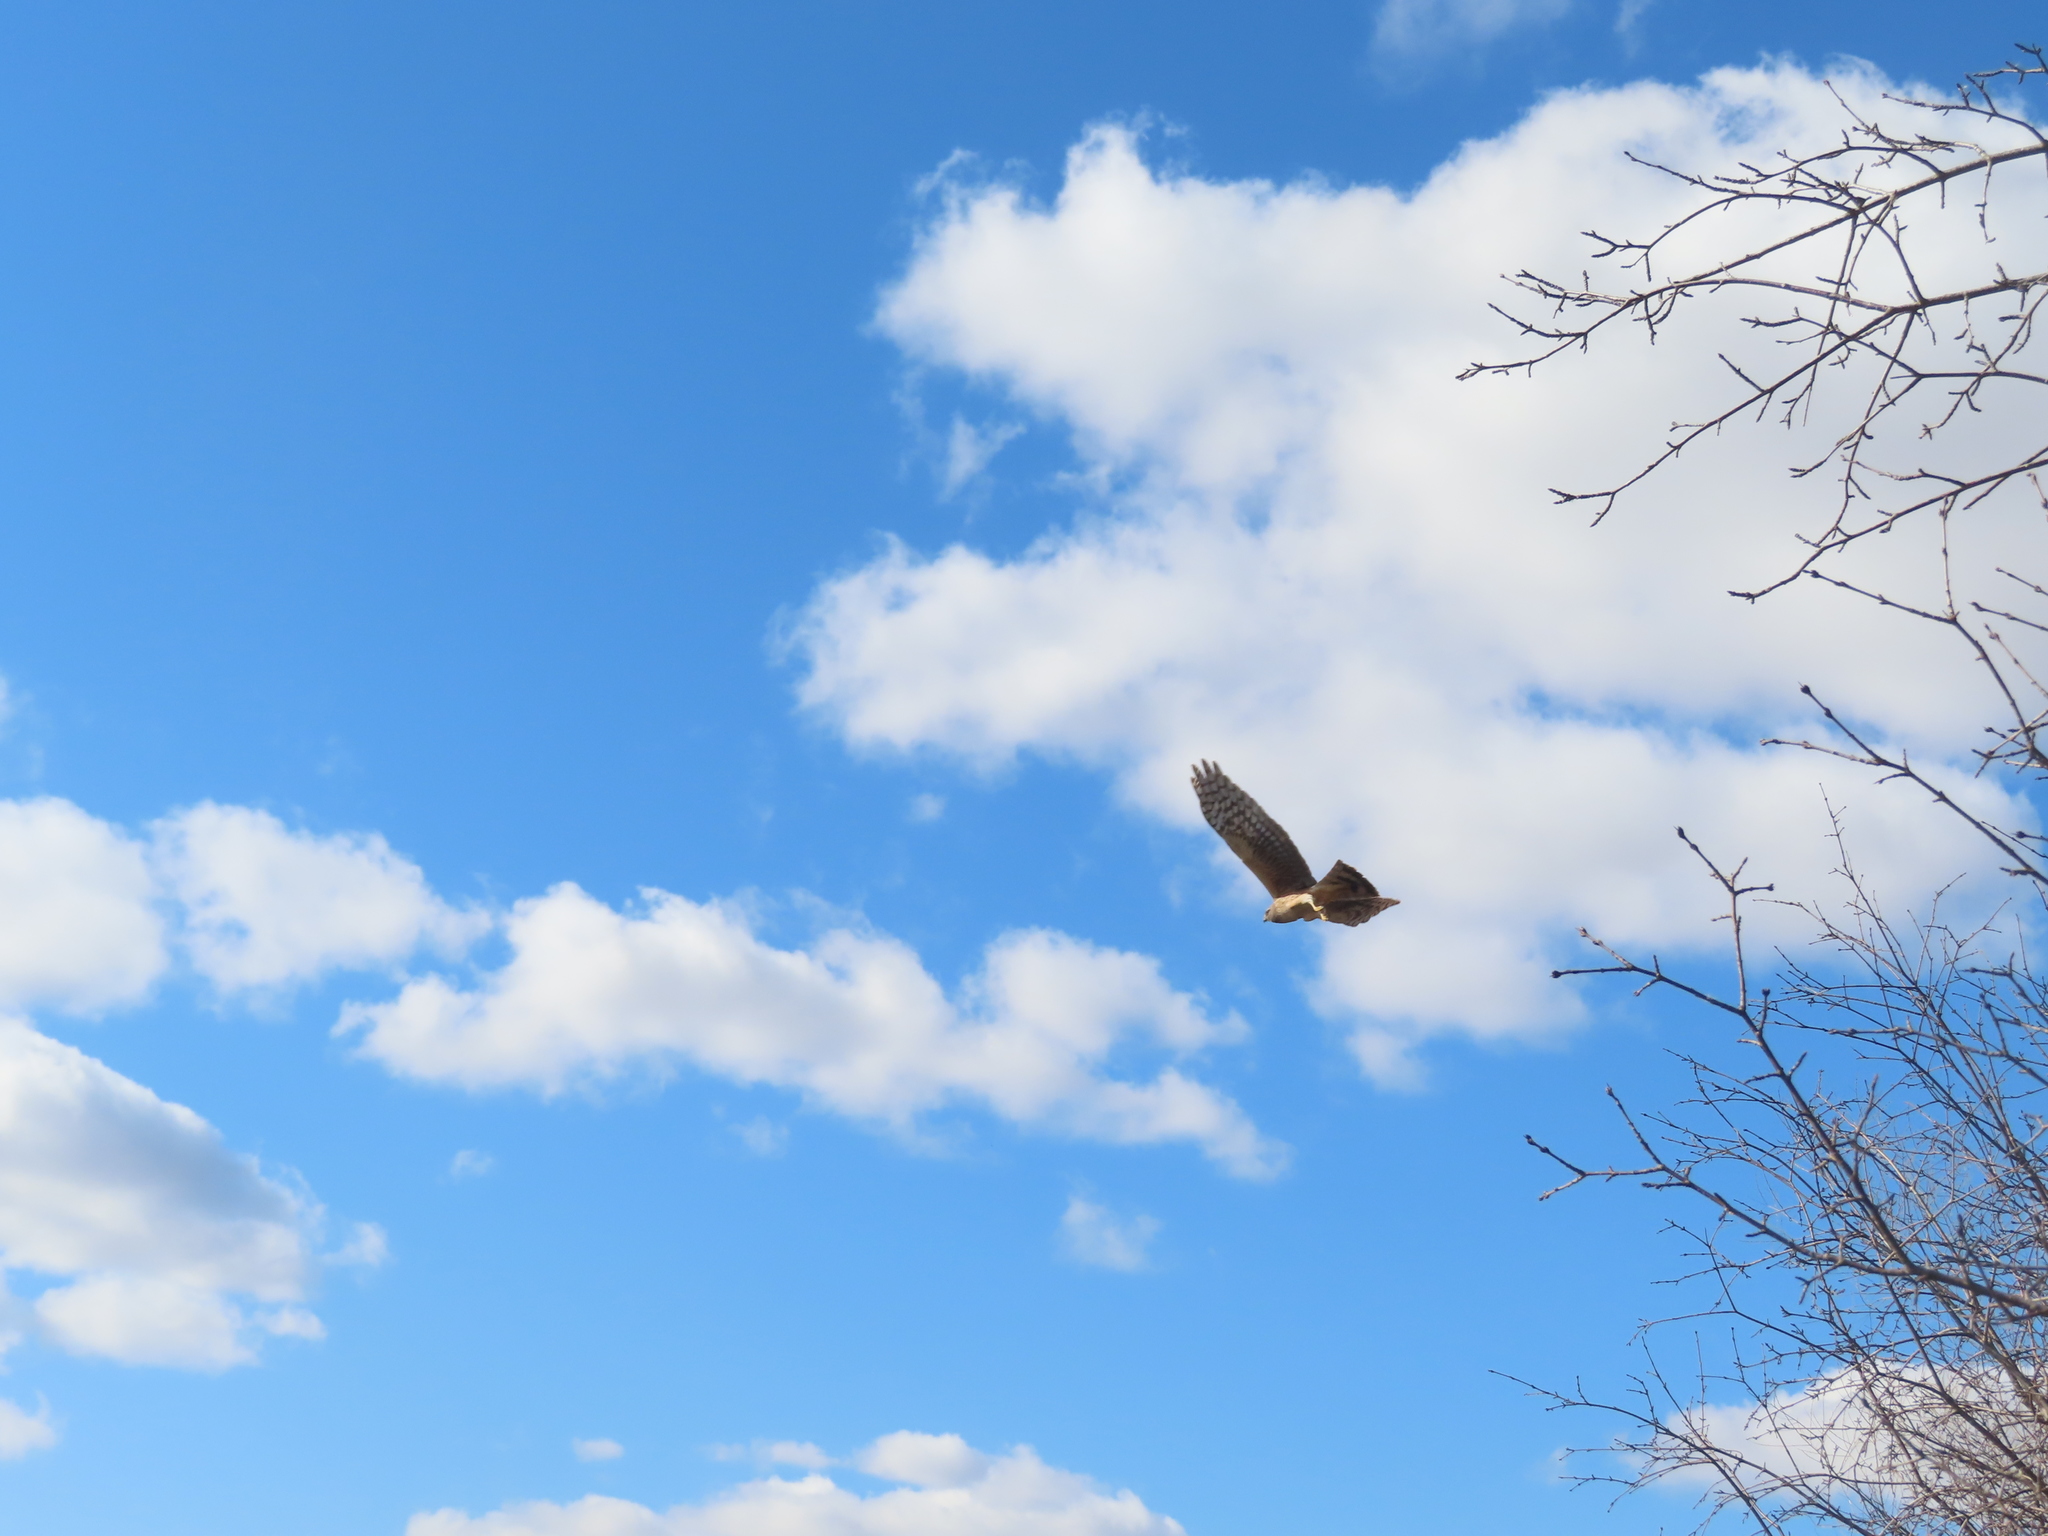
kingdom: Animalia
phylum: Chordata
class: Aves
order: Accipitriformes
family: Accipitridae
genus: Circus
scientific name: Circus cyaneus
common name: Hen harrier
